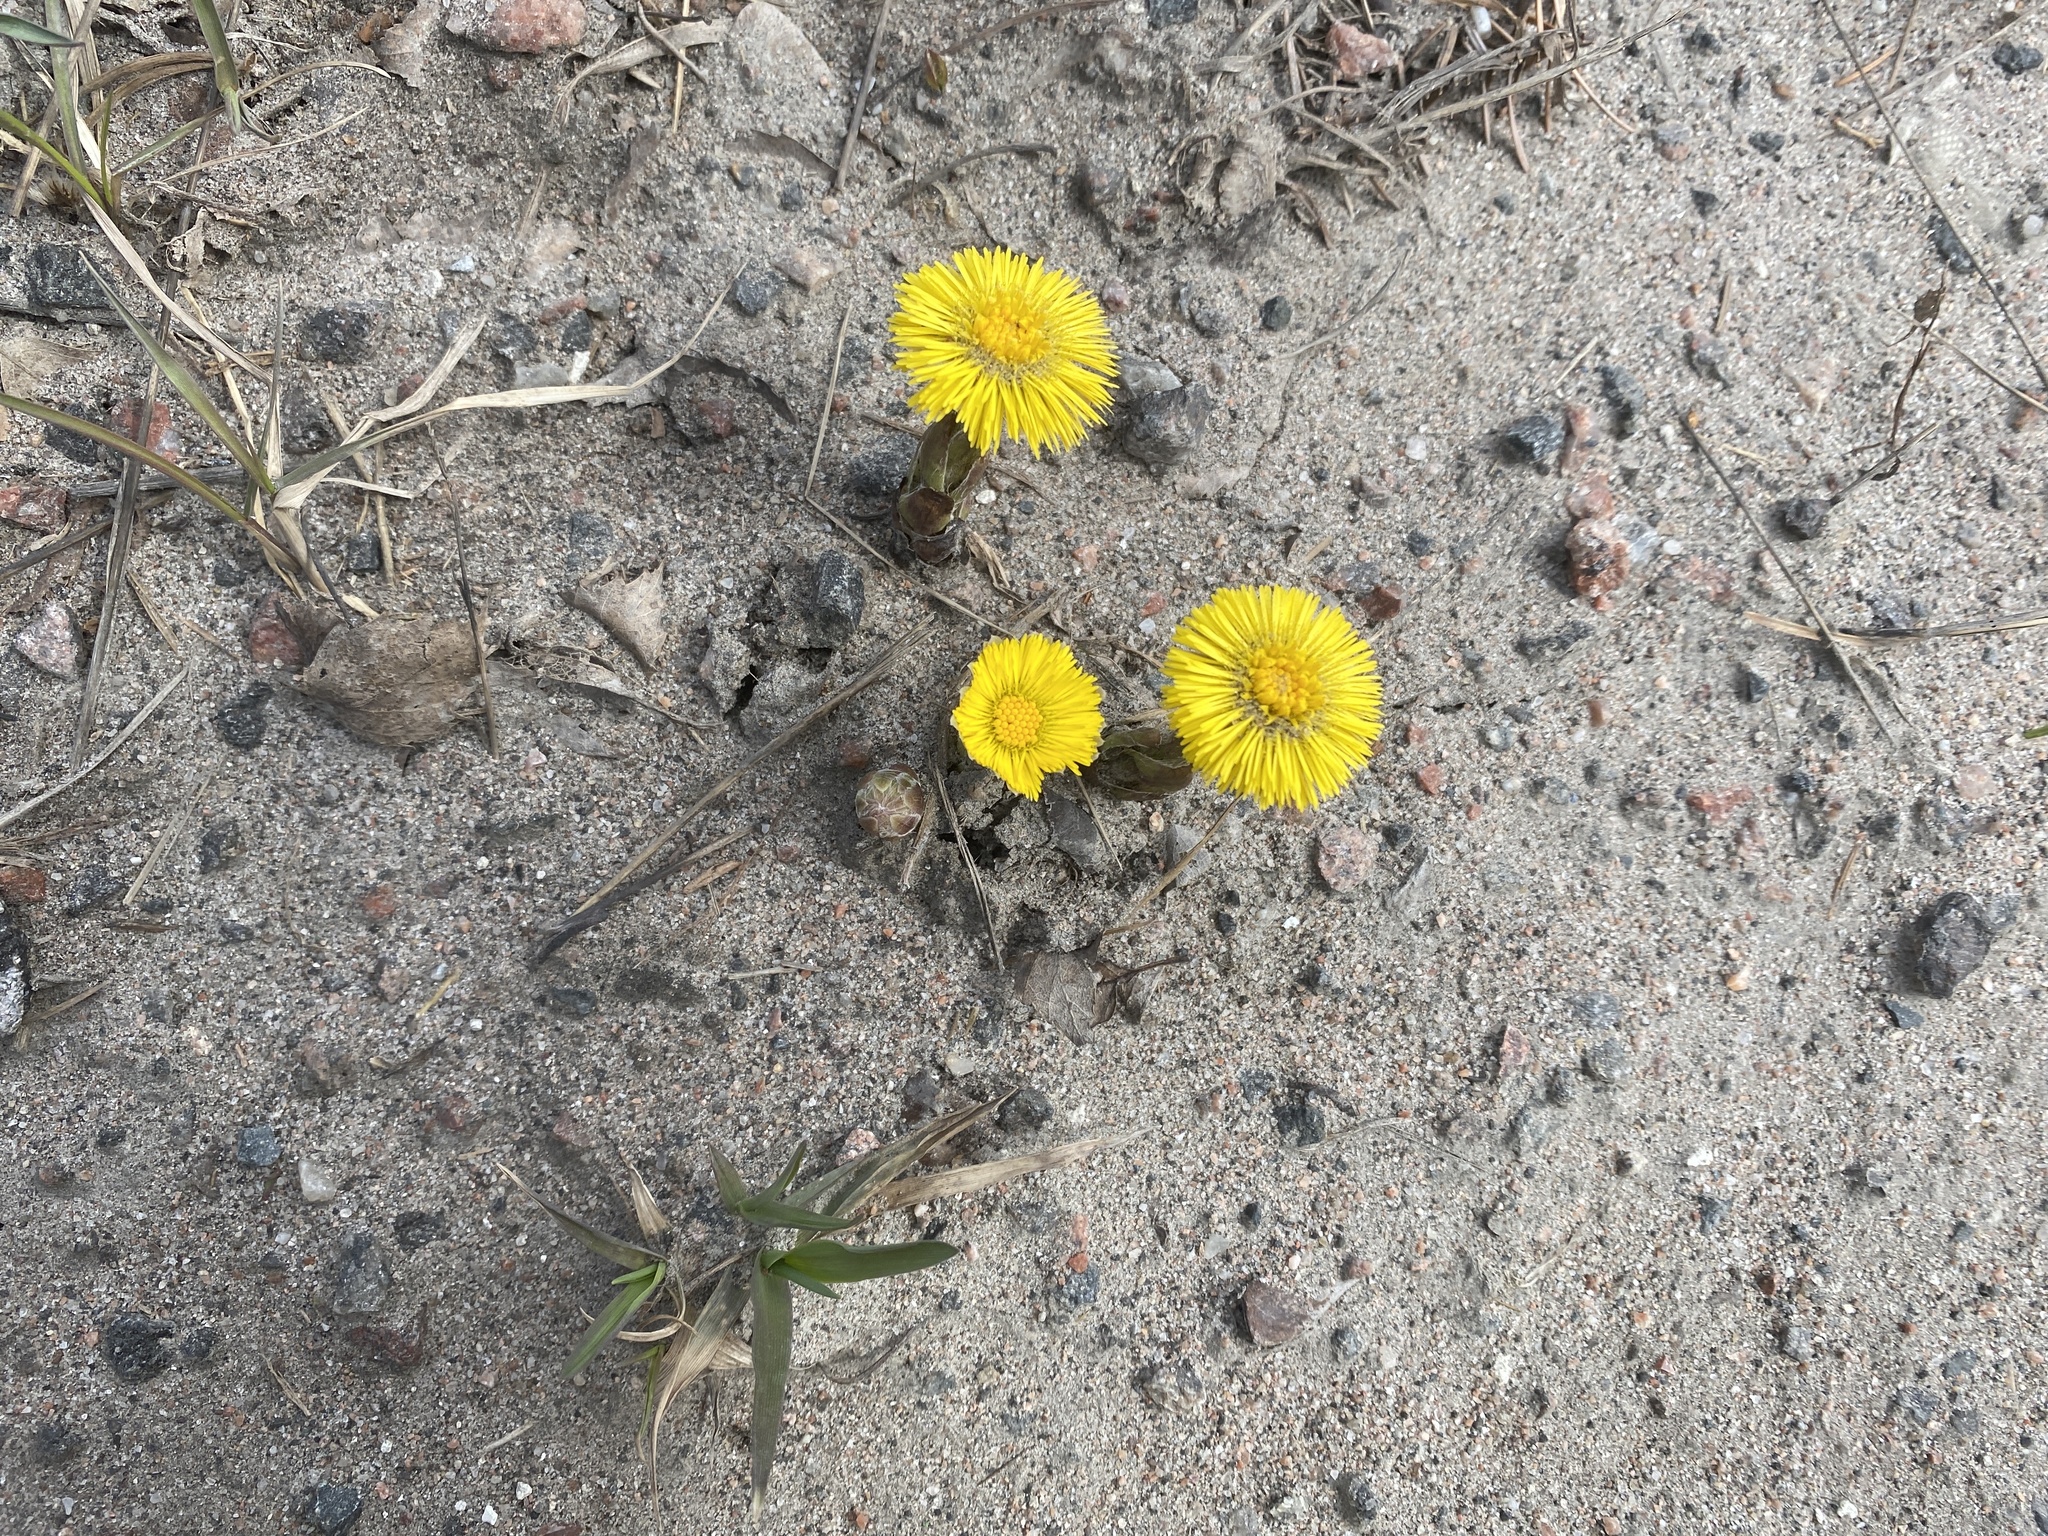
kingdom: Plantae
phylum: Tracheophyta
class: Magnoliopsida
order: Asterales
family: Asteraceae
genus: Tussilago
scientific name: Tussilago farfara
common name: Coltsfoot
